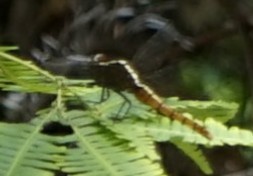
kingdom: Animalia
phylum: Arthropoda
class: Insecta
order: Odonata
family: Libellulidae
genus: Rhodothemis
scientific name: Rhodothemis rufa
